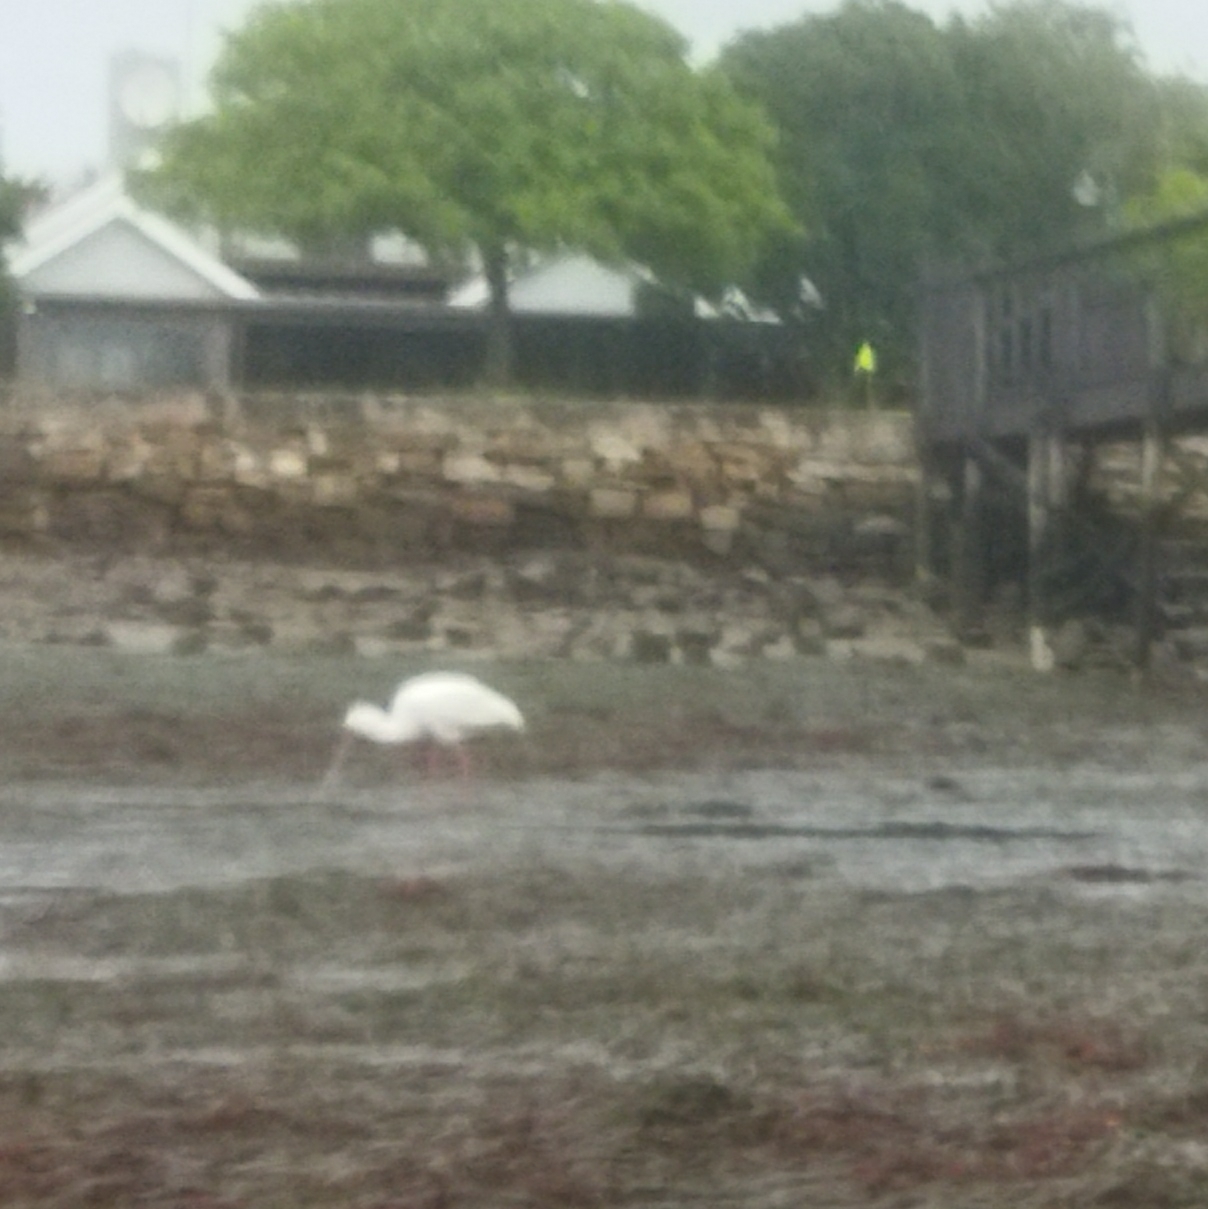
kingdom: Animalia
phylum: Chordata
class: Aves
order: Pelecaniformes
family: Threskiornithidae
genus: Platalea
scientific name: Platalea alba
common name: African spoonbill
